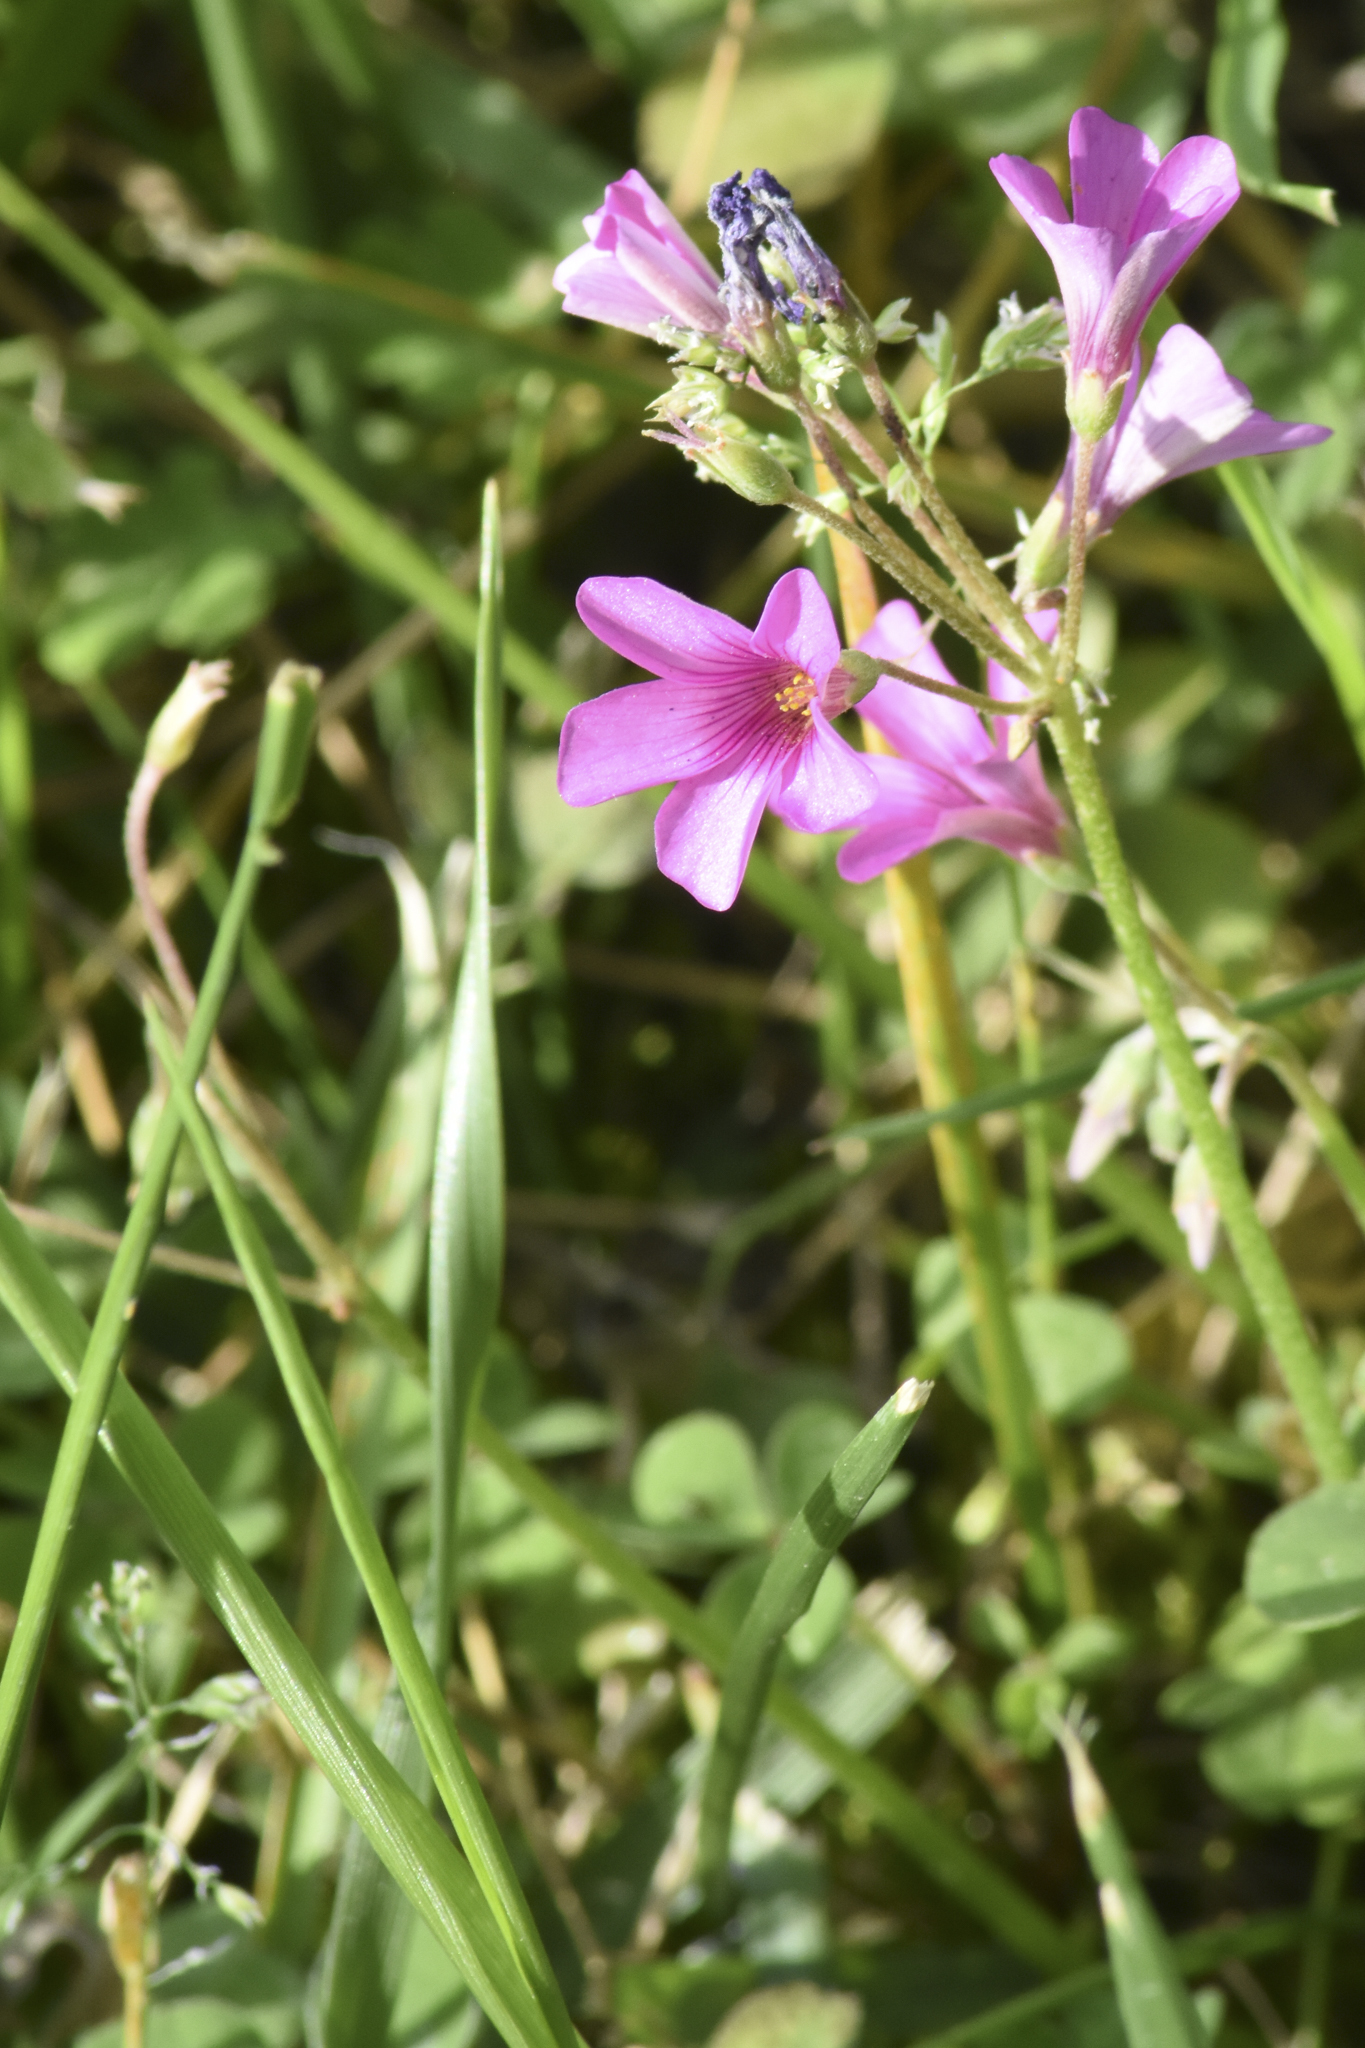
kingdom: Plantae
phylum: Tracheophyta
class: Magnoliopsida
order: Oxalidales
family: Oxalidaceae
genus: Oxalis
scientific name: Oxalis articulata
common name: Pink-sorrel
